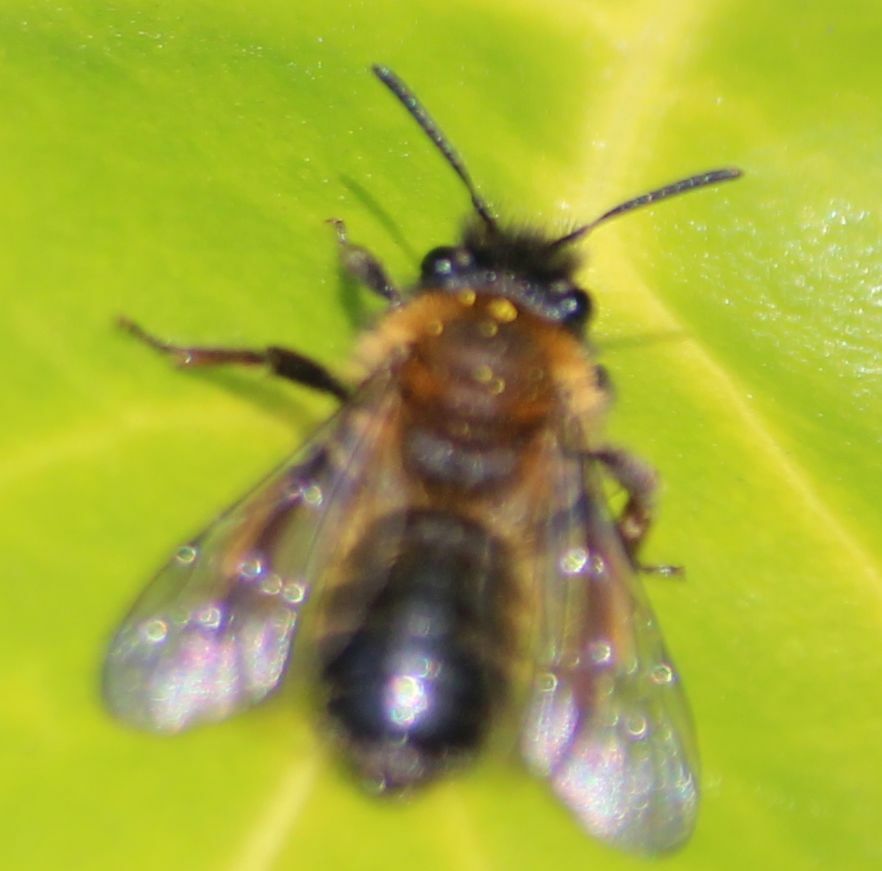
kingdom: Animalia
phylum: Arthropoda
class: Insecta
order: Hymenoptera
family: Andrenidae
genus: Andrena
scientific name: Andrena bicolor
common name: Gwynne's mining bee
